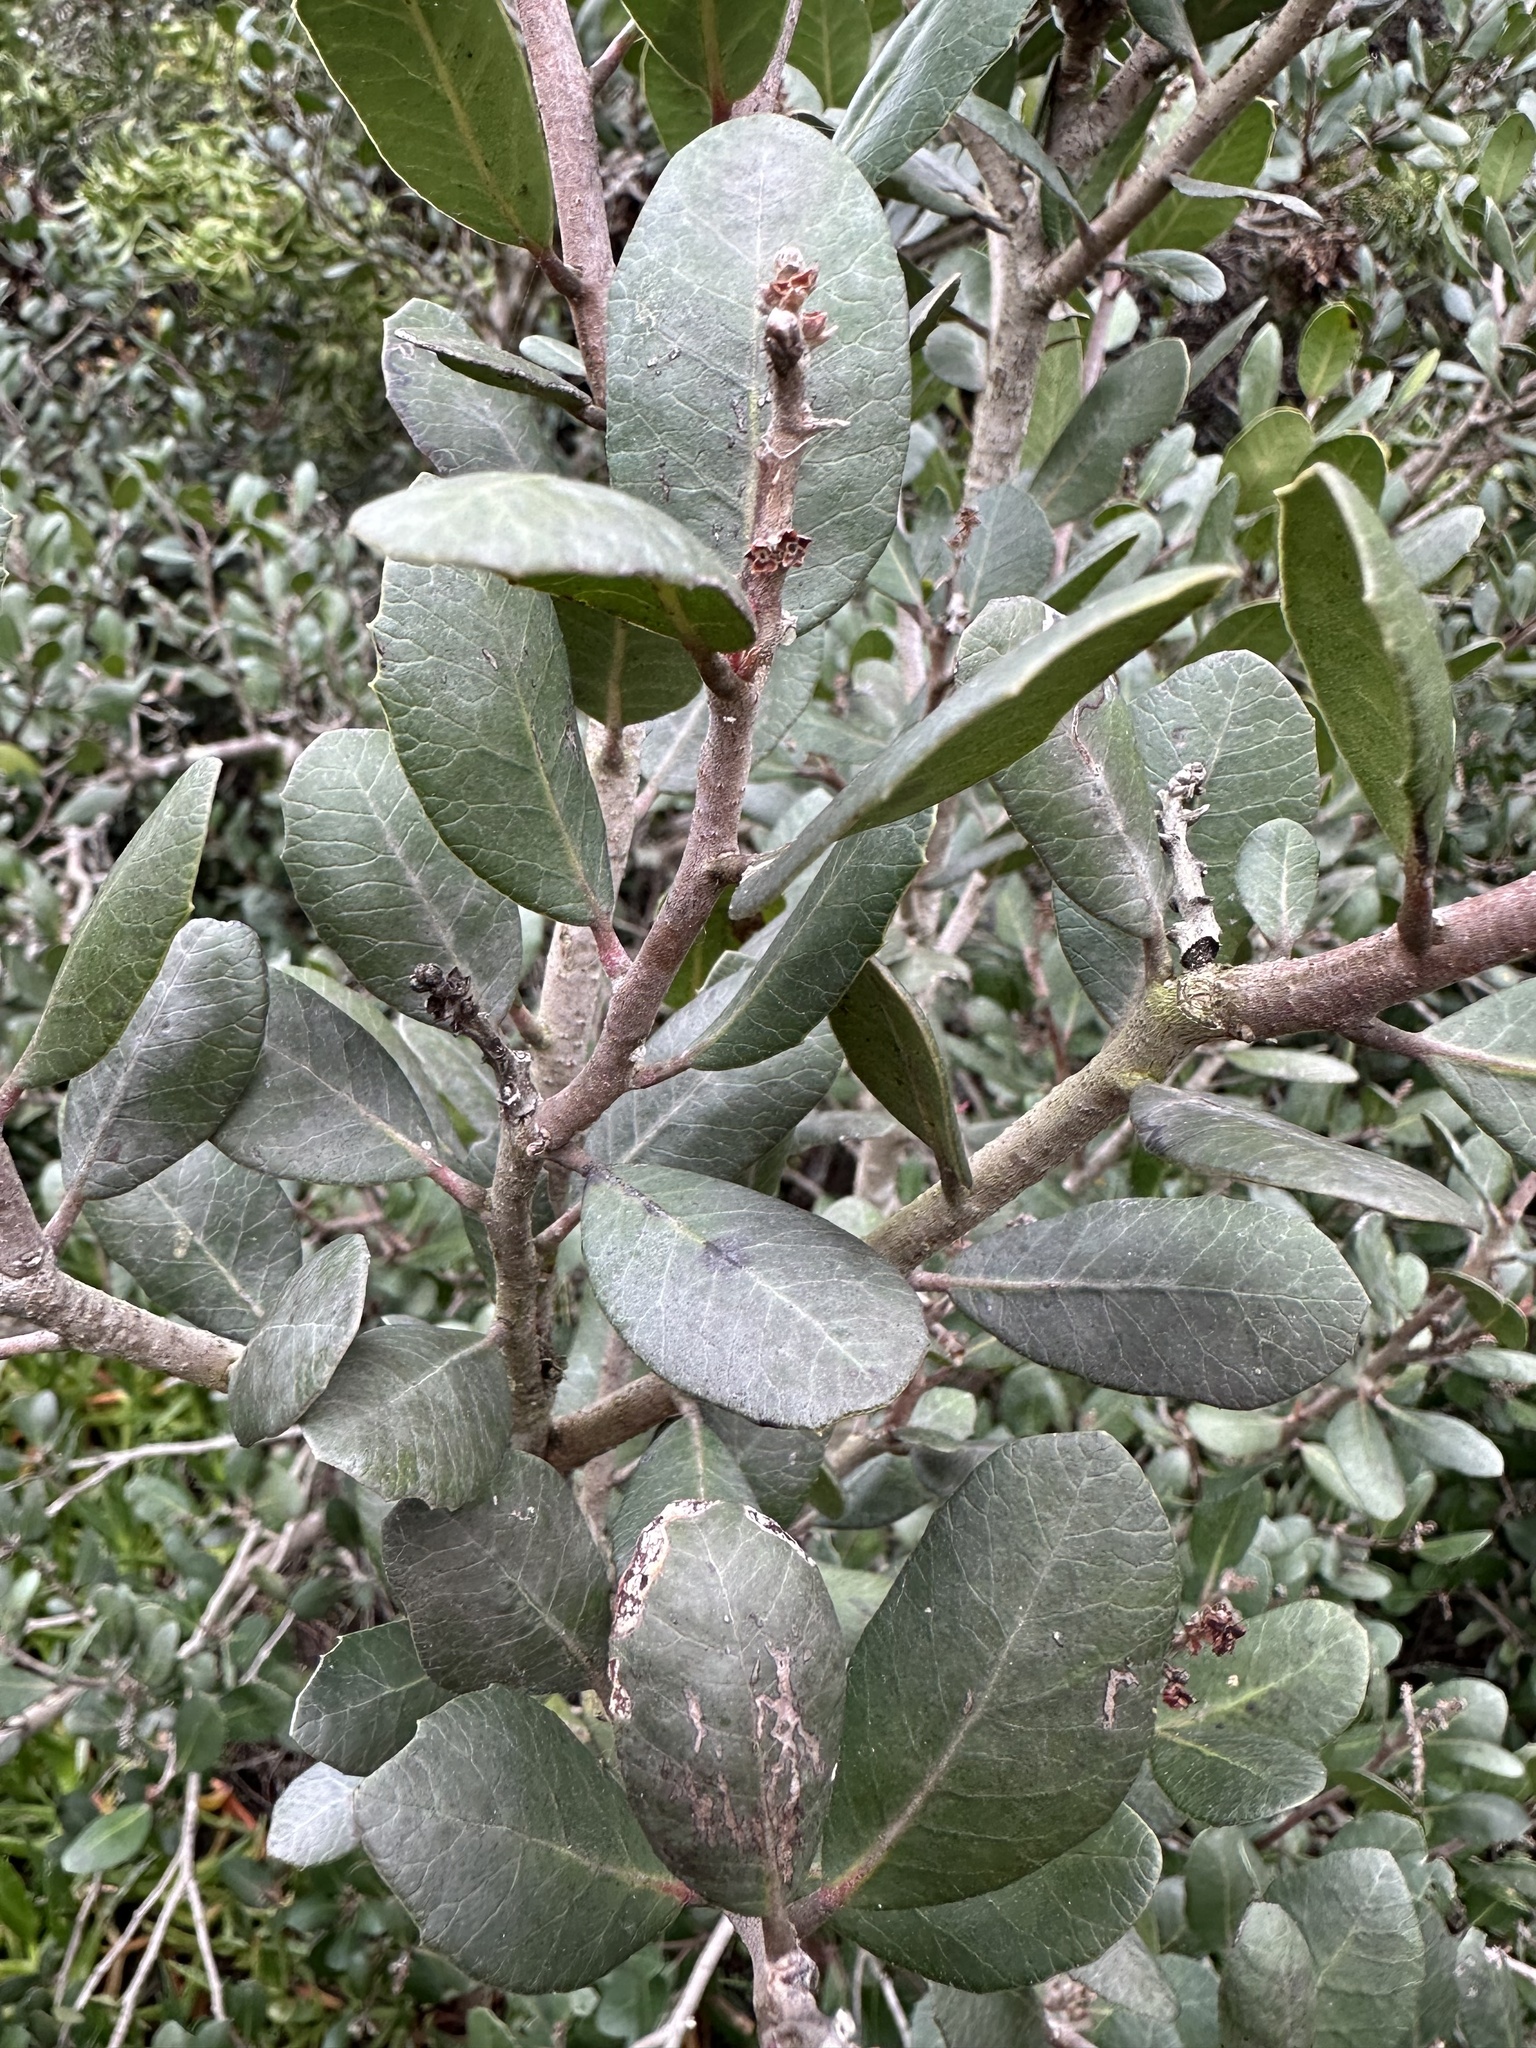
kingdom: Plantae
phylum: Tracheophyta
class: Magnoliopsida
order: Sapindales
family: Anacardiaceae
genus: Rhus
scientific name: Rhus integrifolia
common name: Lemonade sumac
